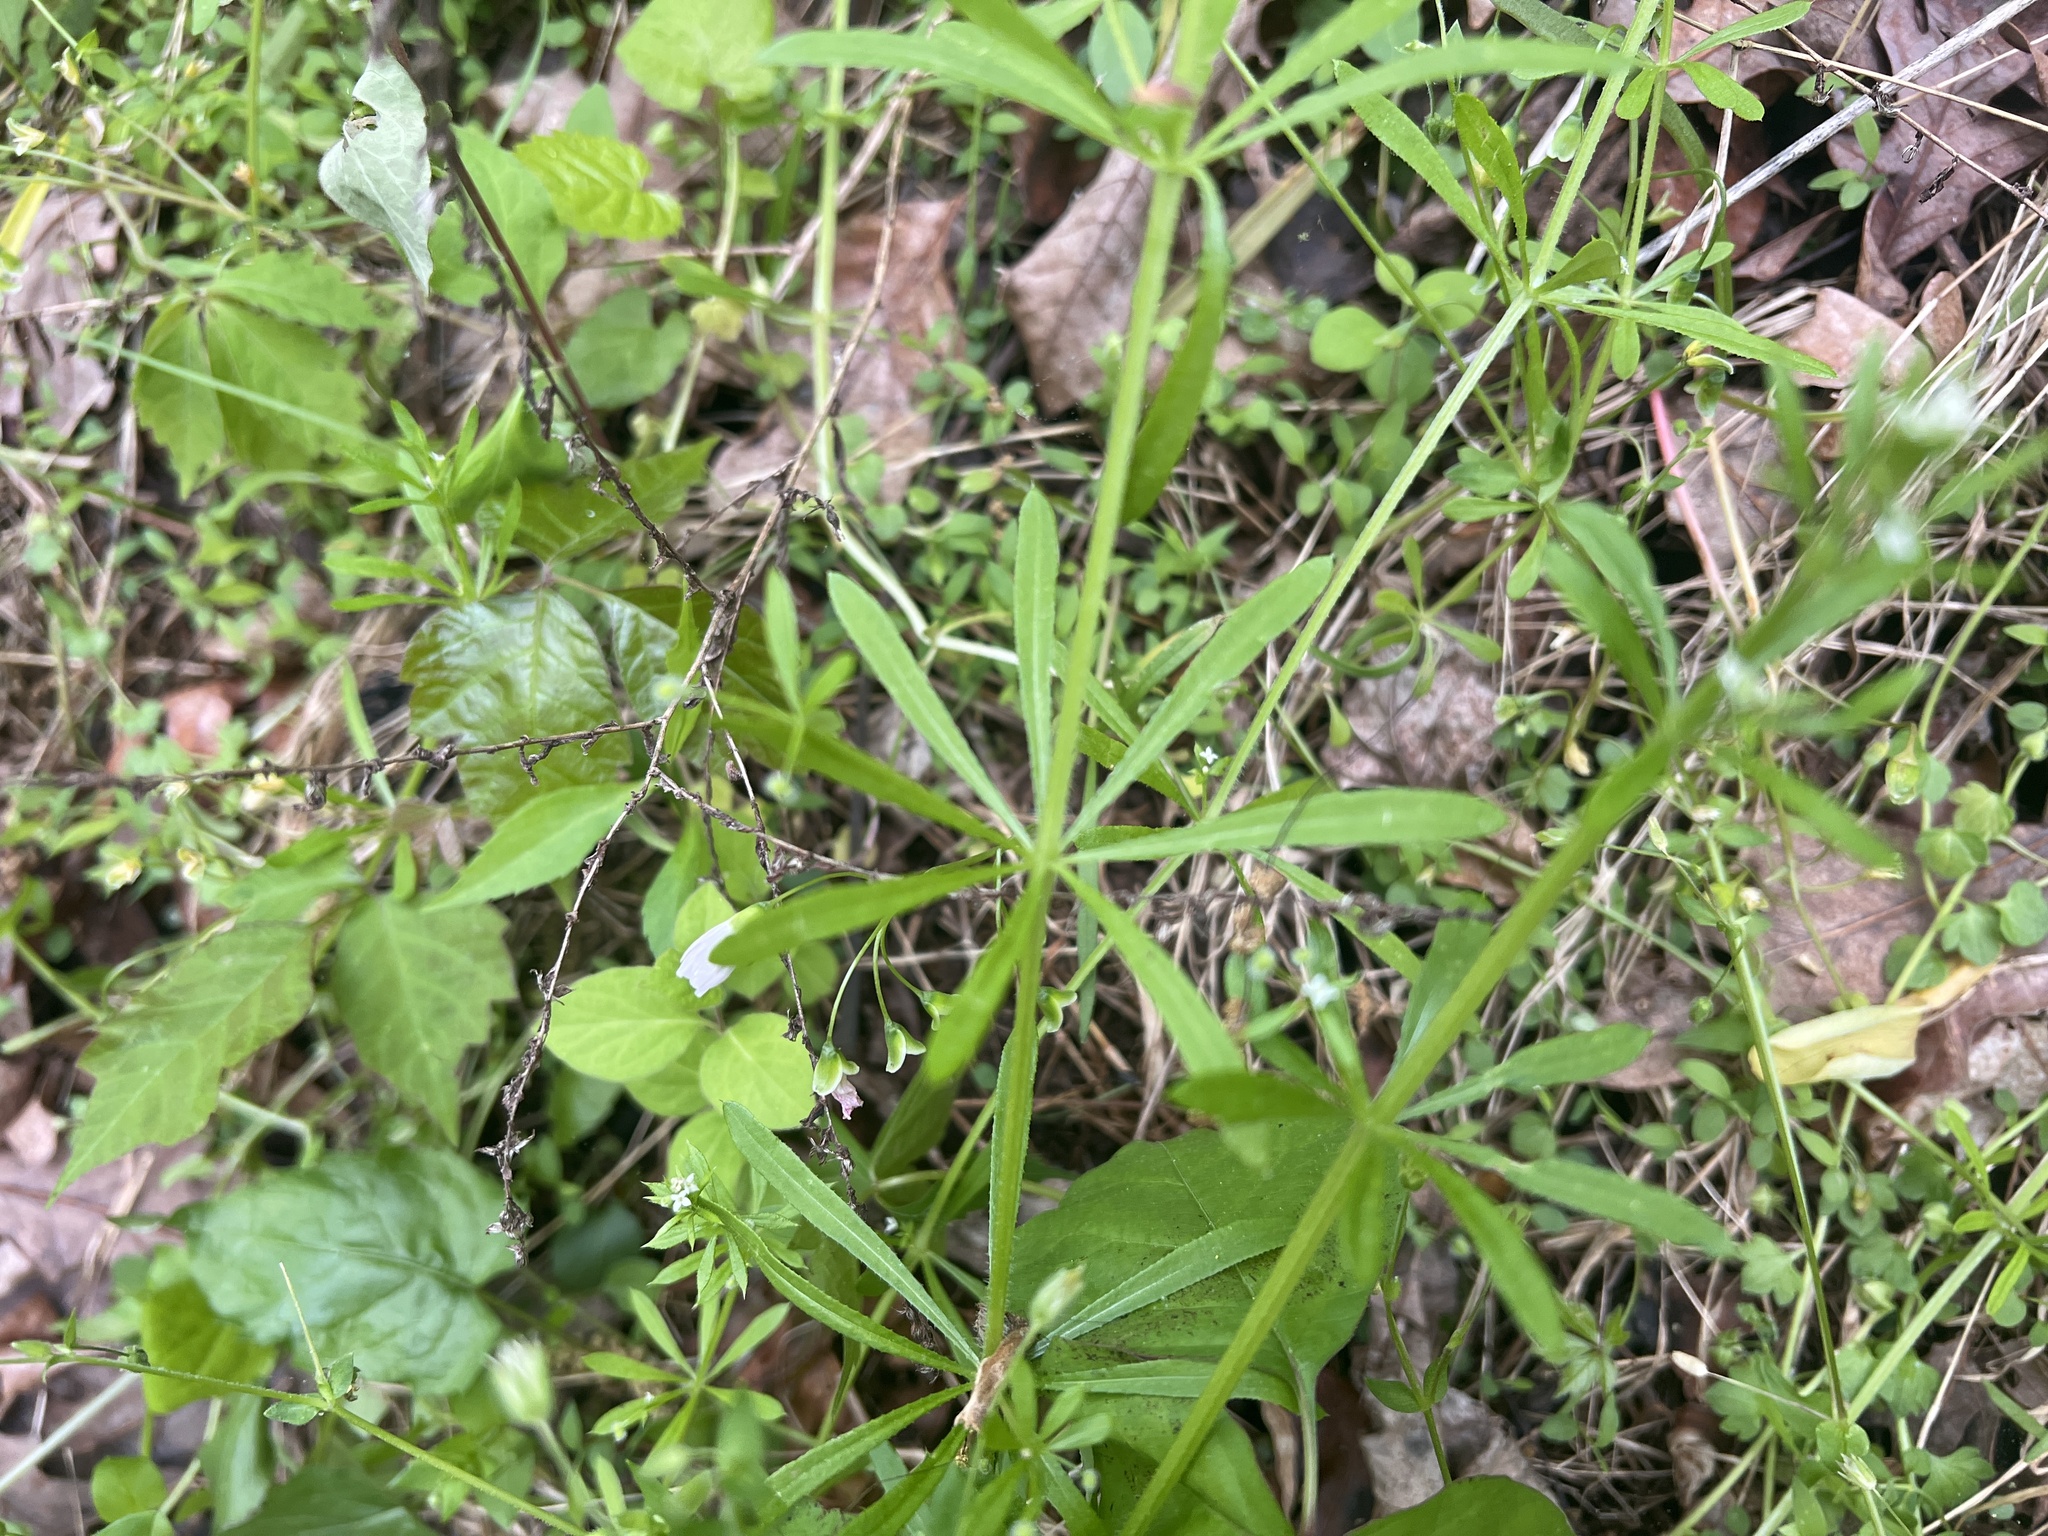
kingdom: Plantae
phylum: Tracheophyta
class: Magnoliopsida
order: Gentianales
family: Rubiaceae
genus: Galium
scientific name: Galium aparine
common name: Cleavers
